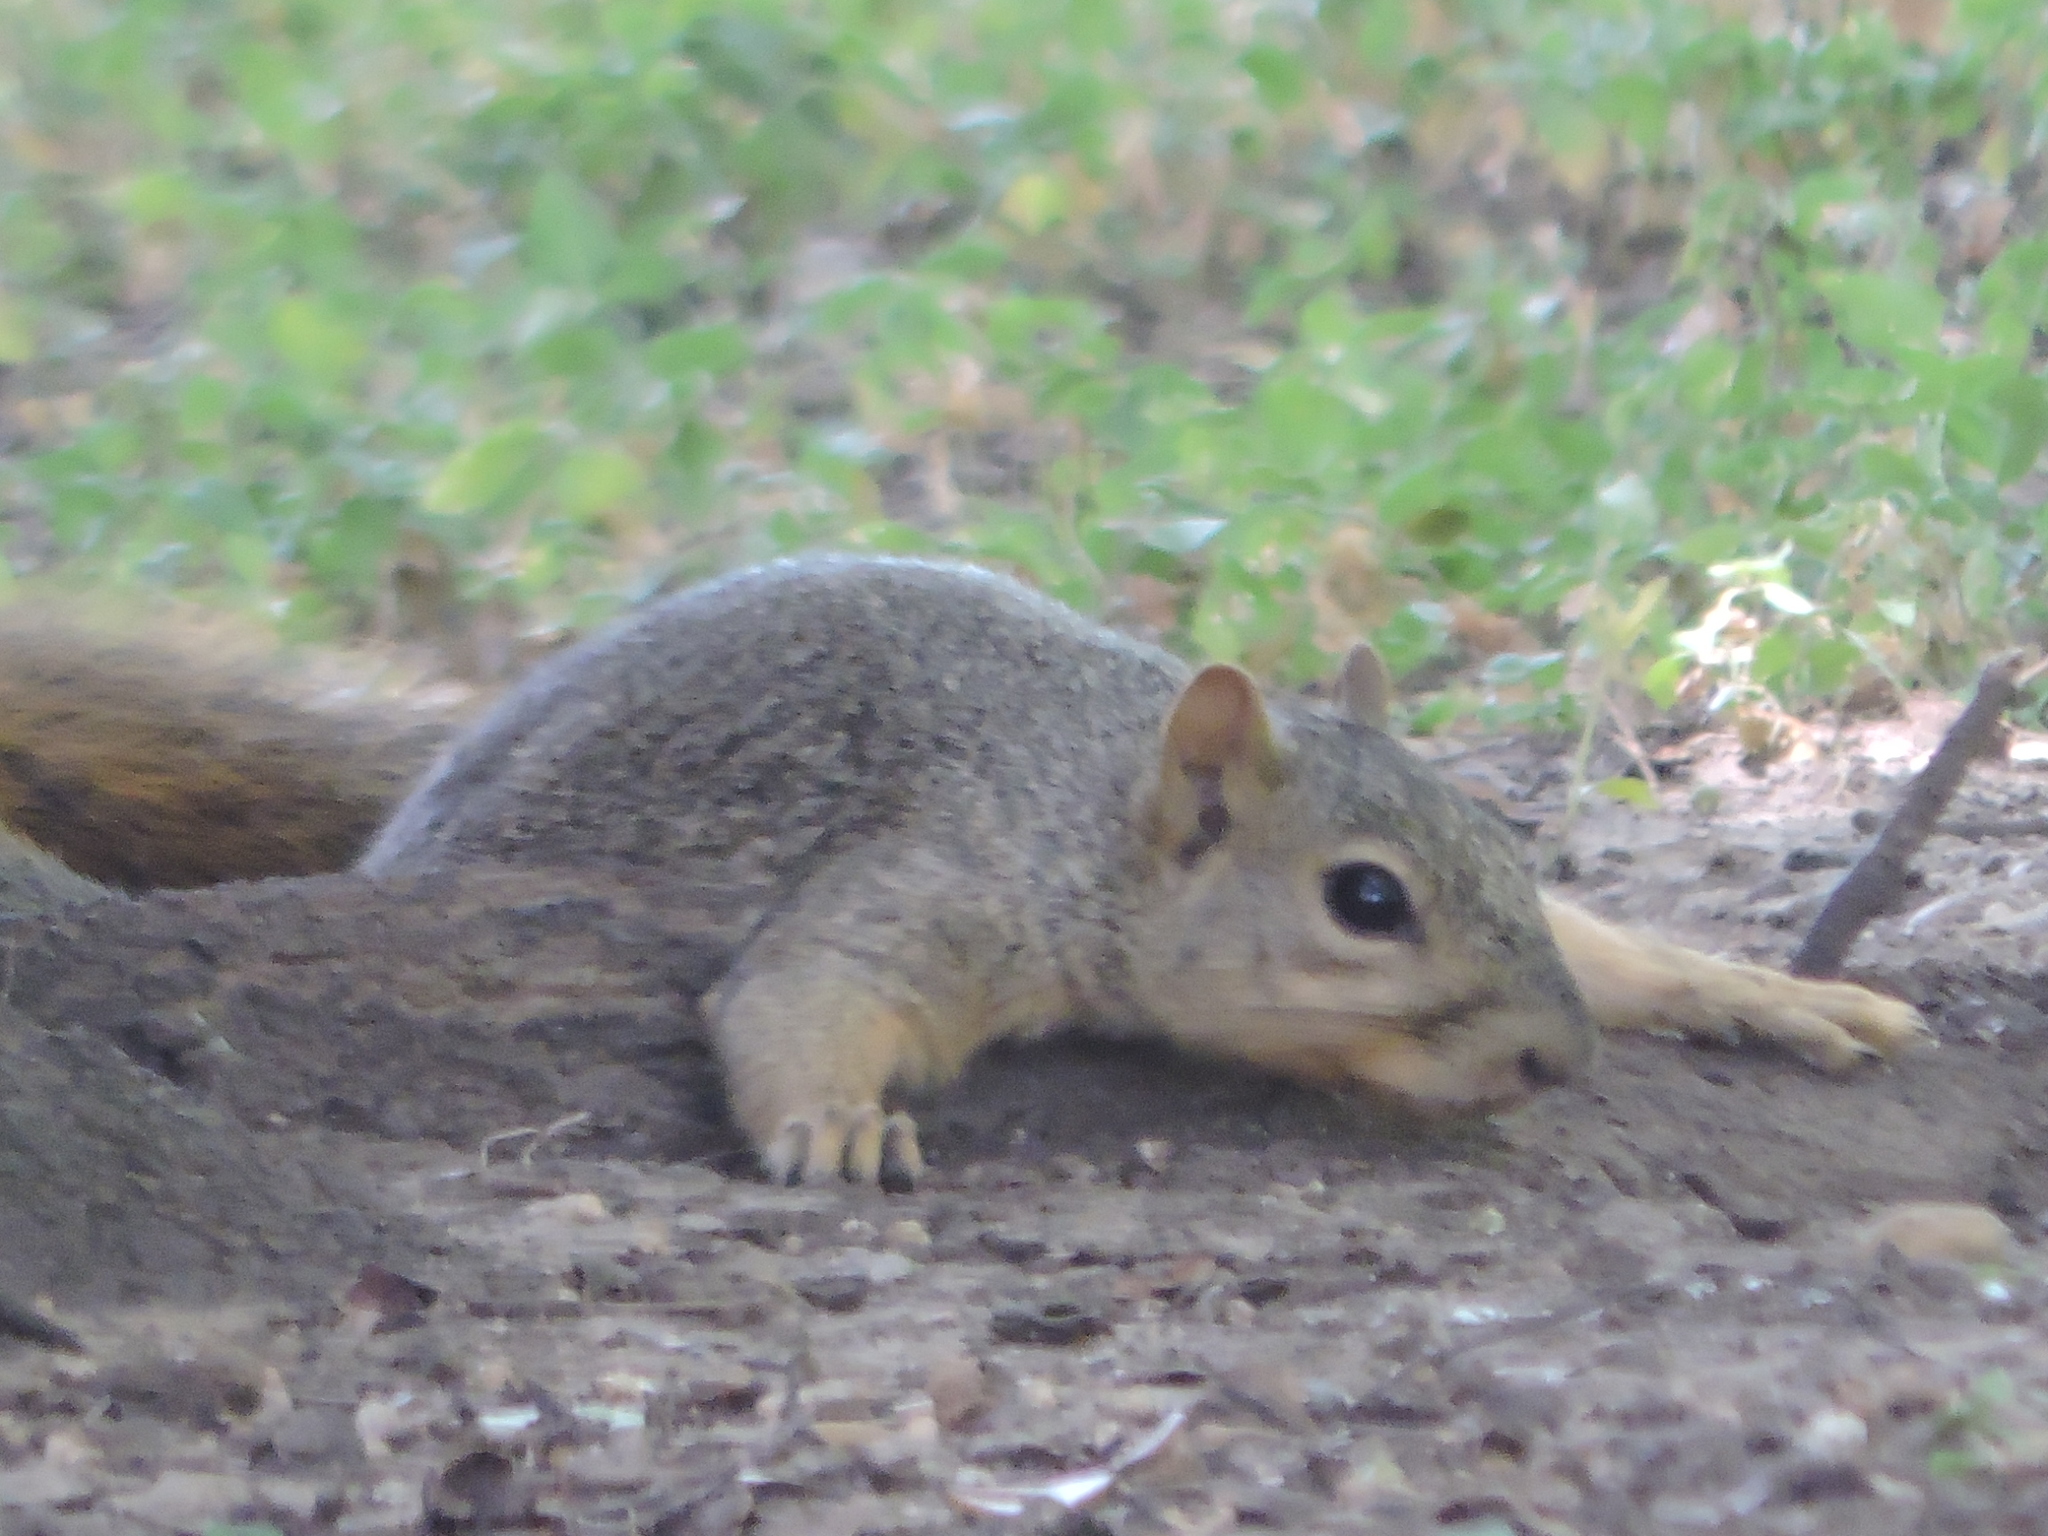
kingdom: Animalia
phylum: Chordata
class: Mammalia
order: Rodentia
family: Sciuridae
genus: Sciurus
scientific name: Sciurus niger
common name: Fox squirrel
